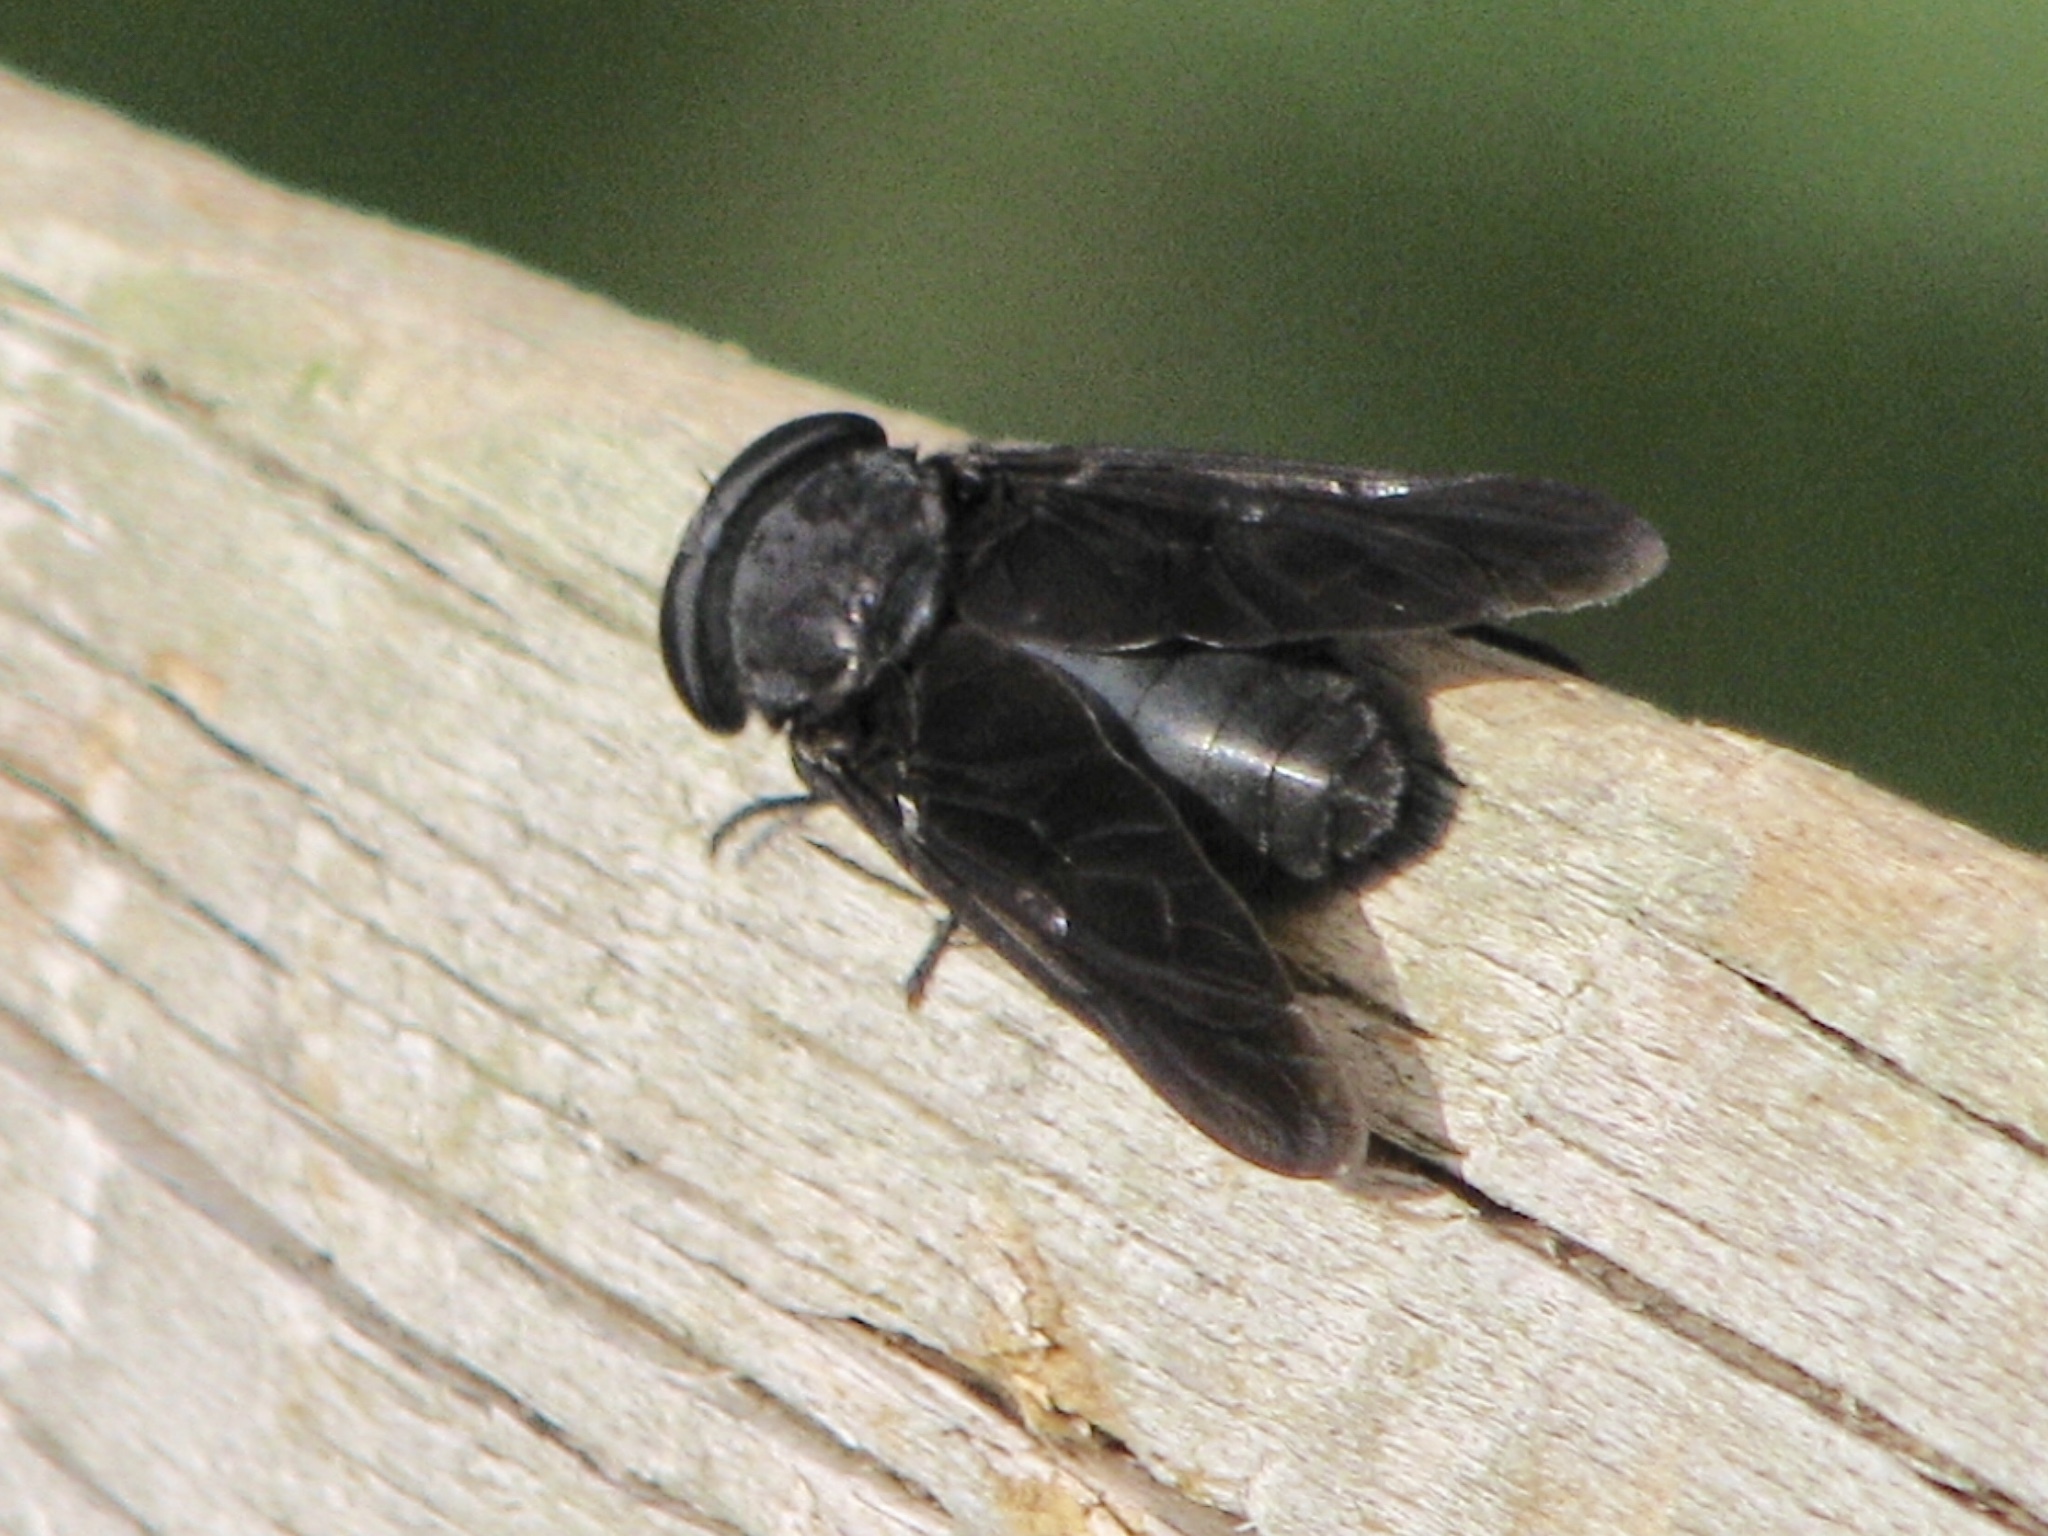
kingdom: Animalia
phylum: Arthropoda
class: Insecta
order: Diptera
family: Tabanidae
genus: Tabanus
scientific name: Tabanus atratus
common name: Black horse fly
